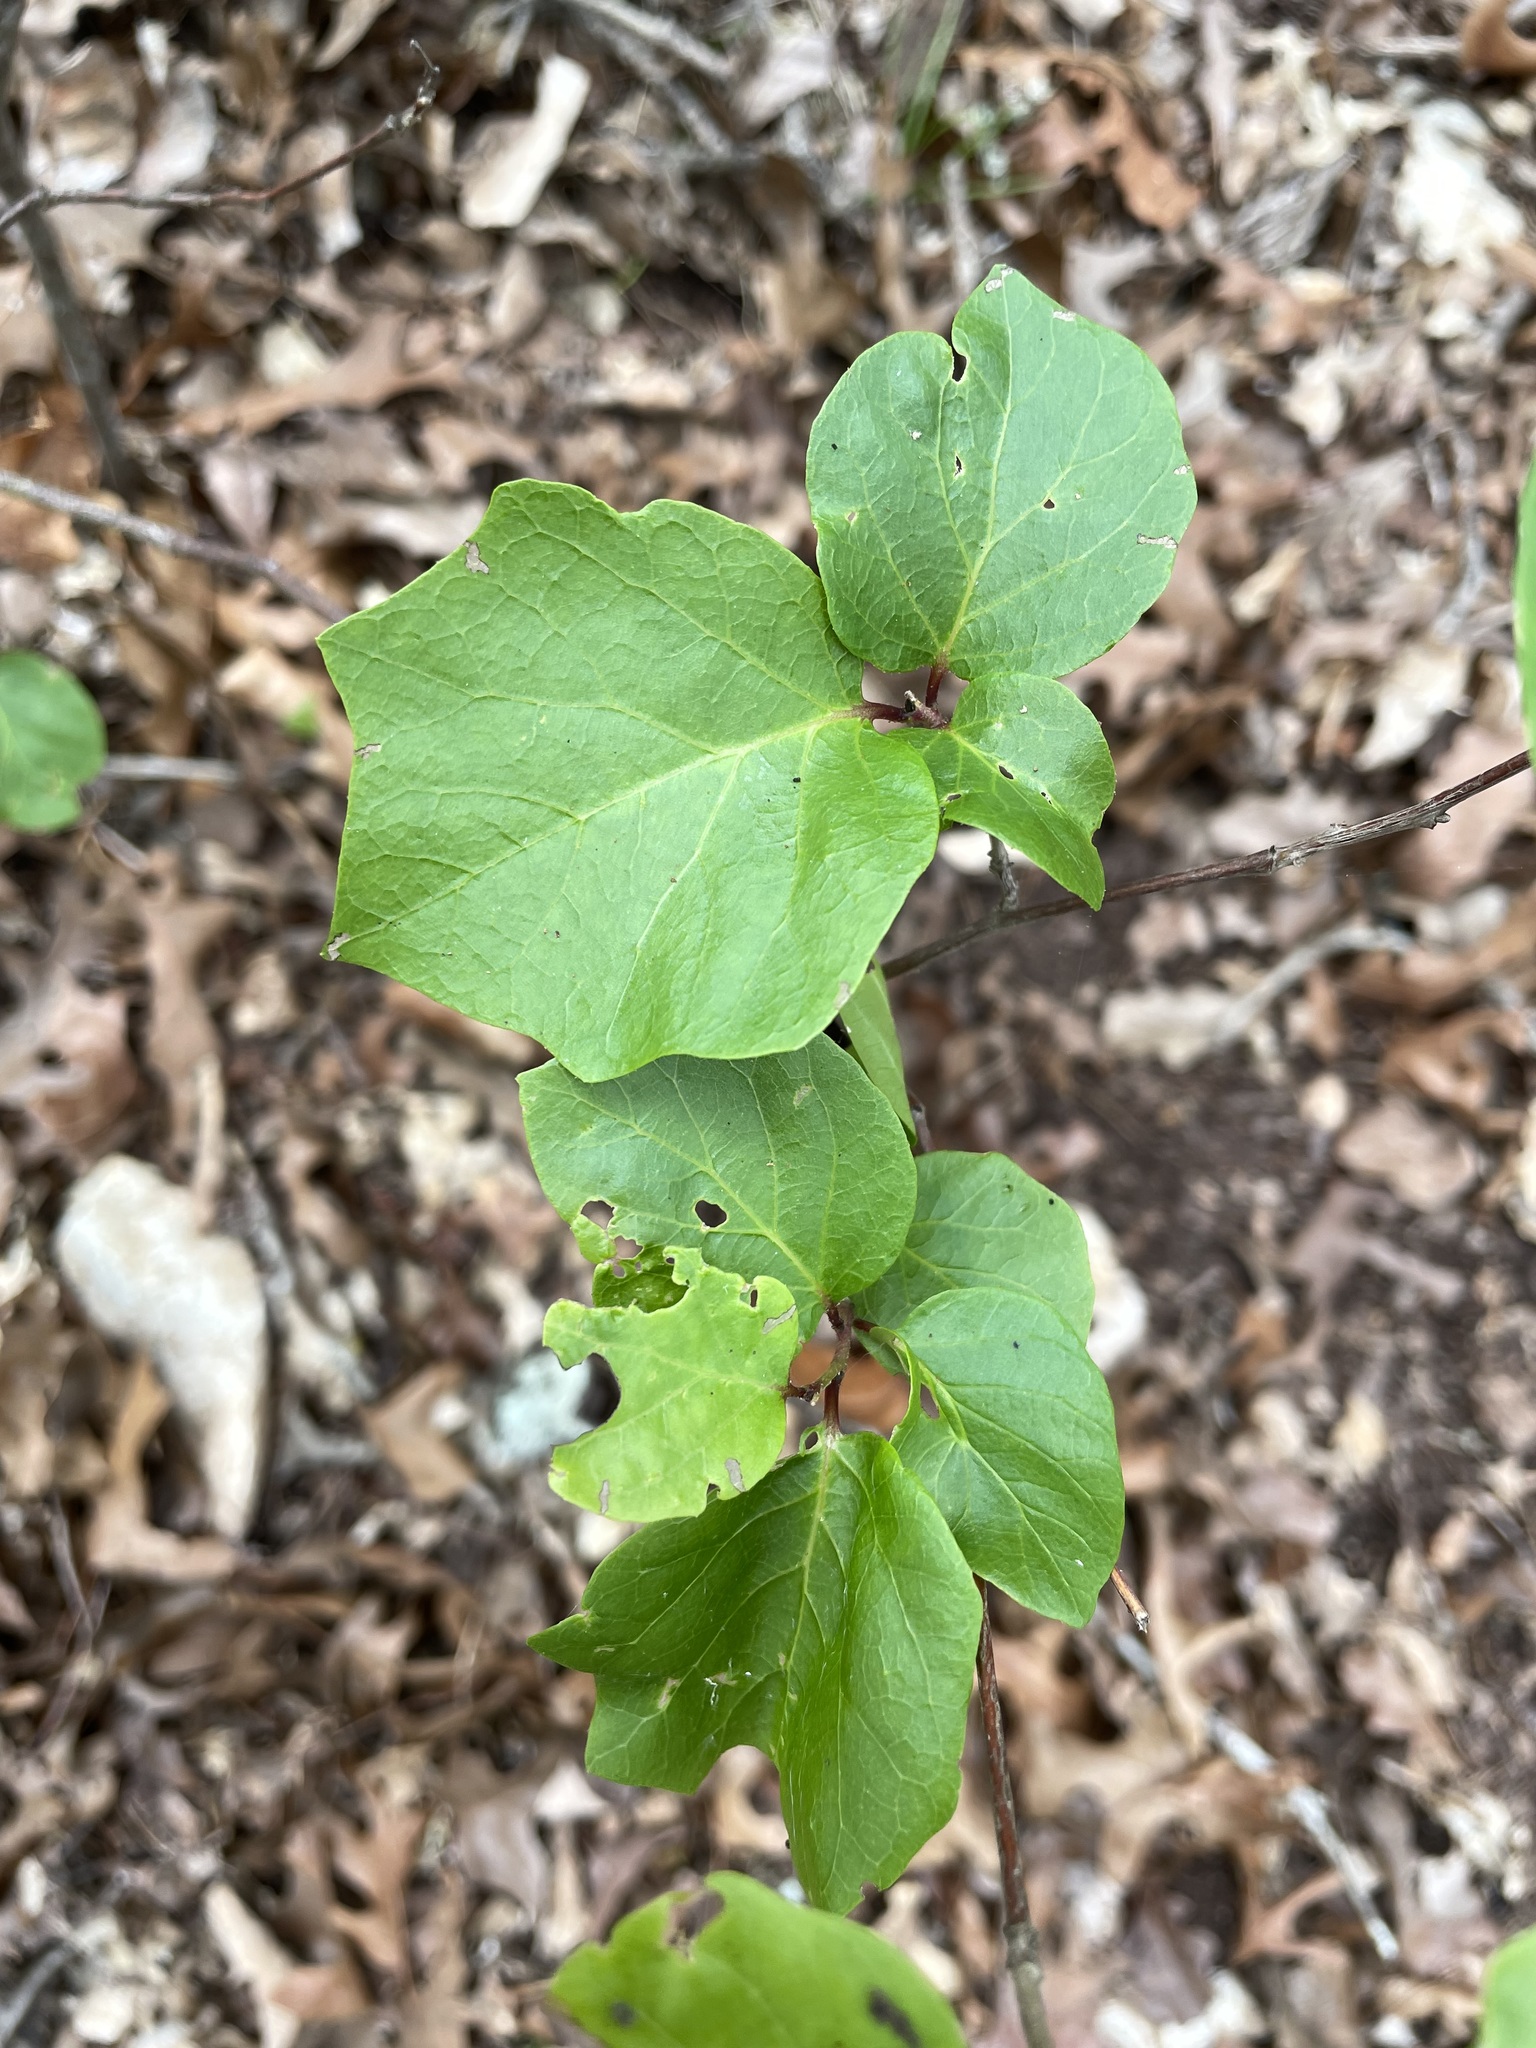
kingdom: Plantae
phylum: Tracheophyta
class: Magnoliopsida
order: Ericales
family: Styracaceae
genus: Styrax
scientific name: Styrax platanifolius
